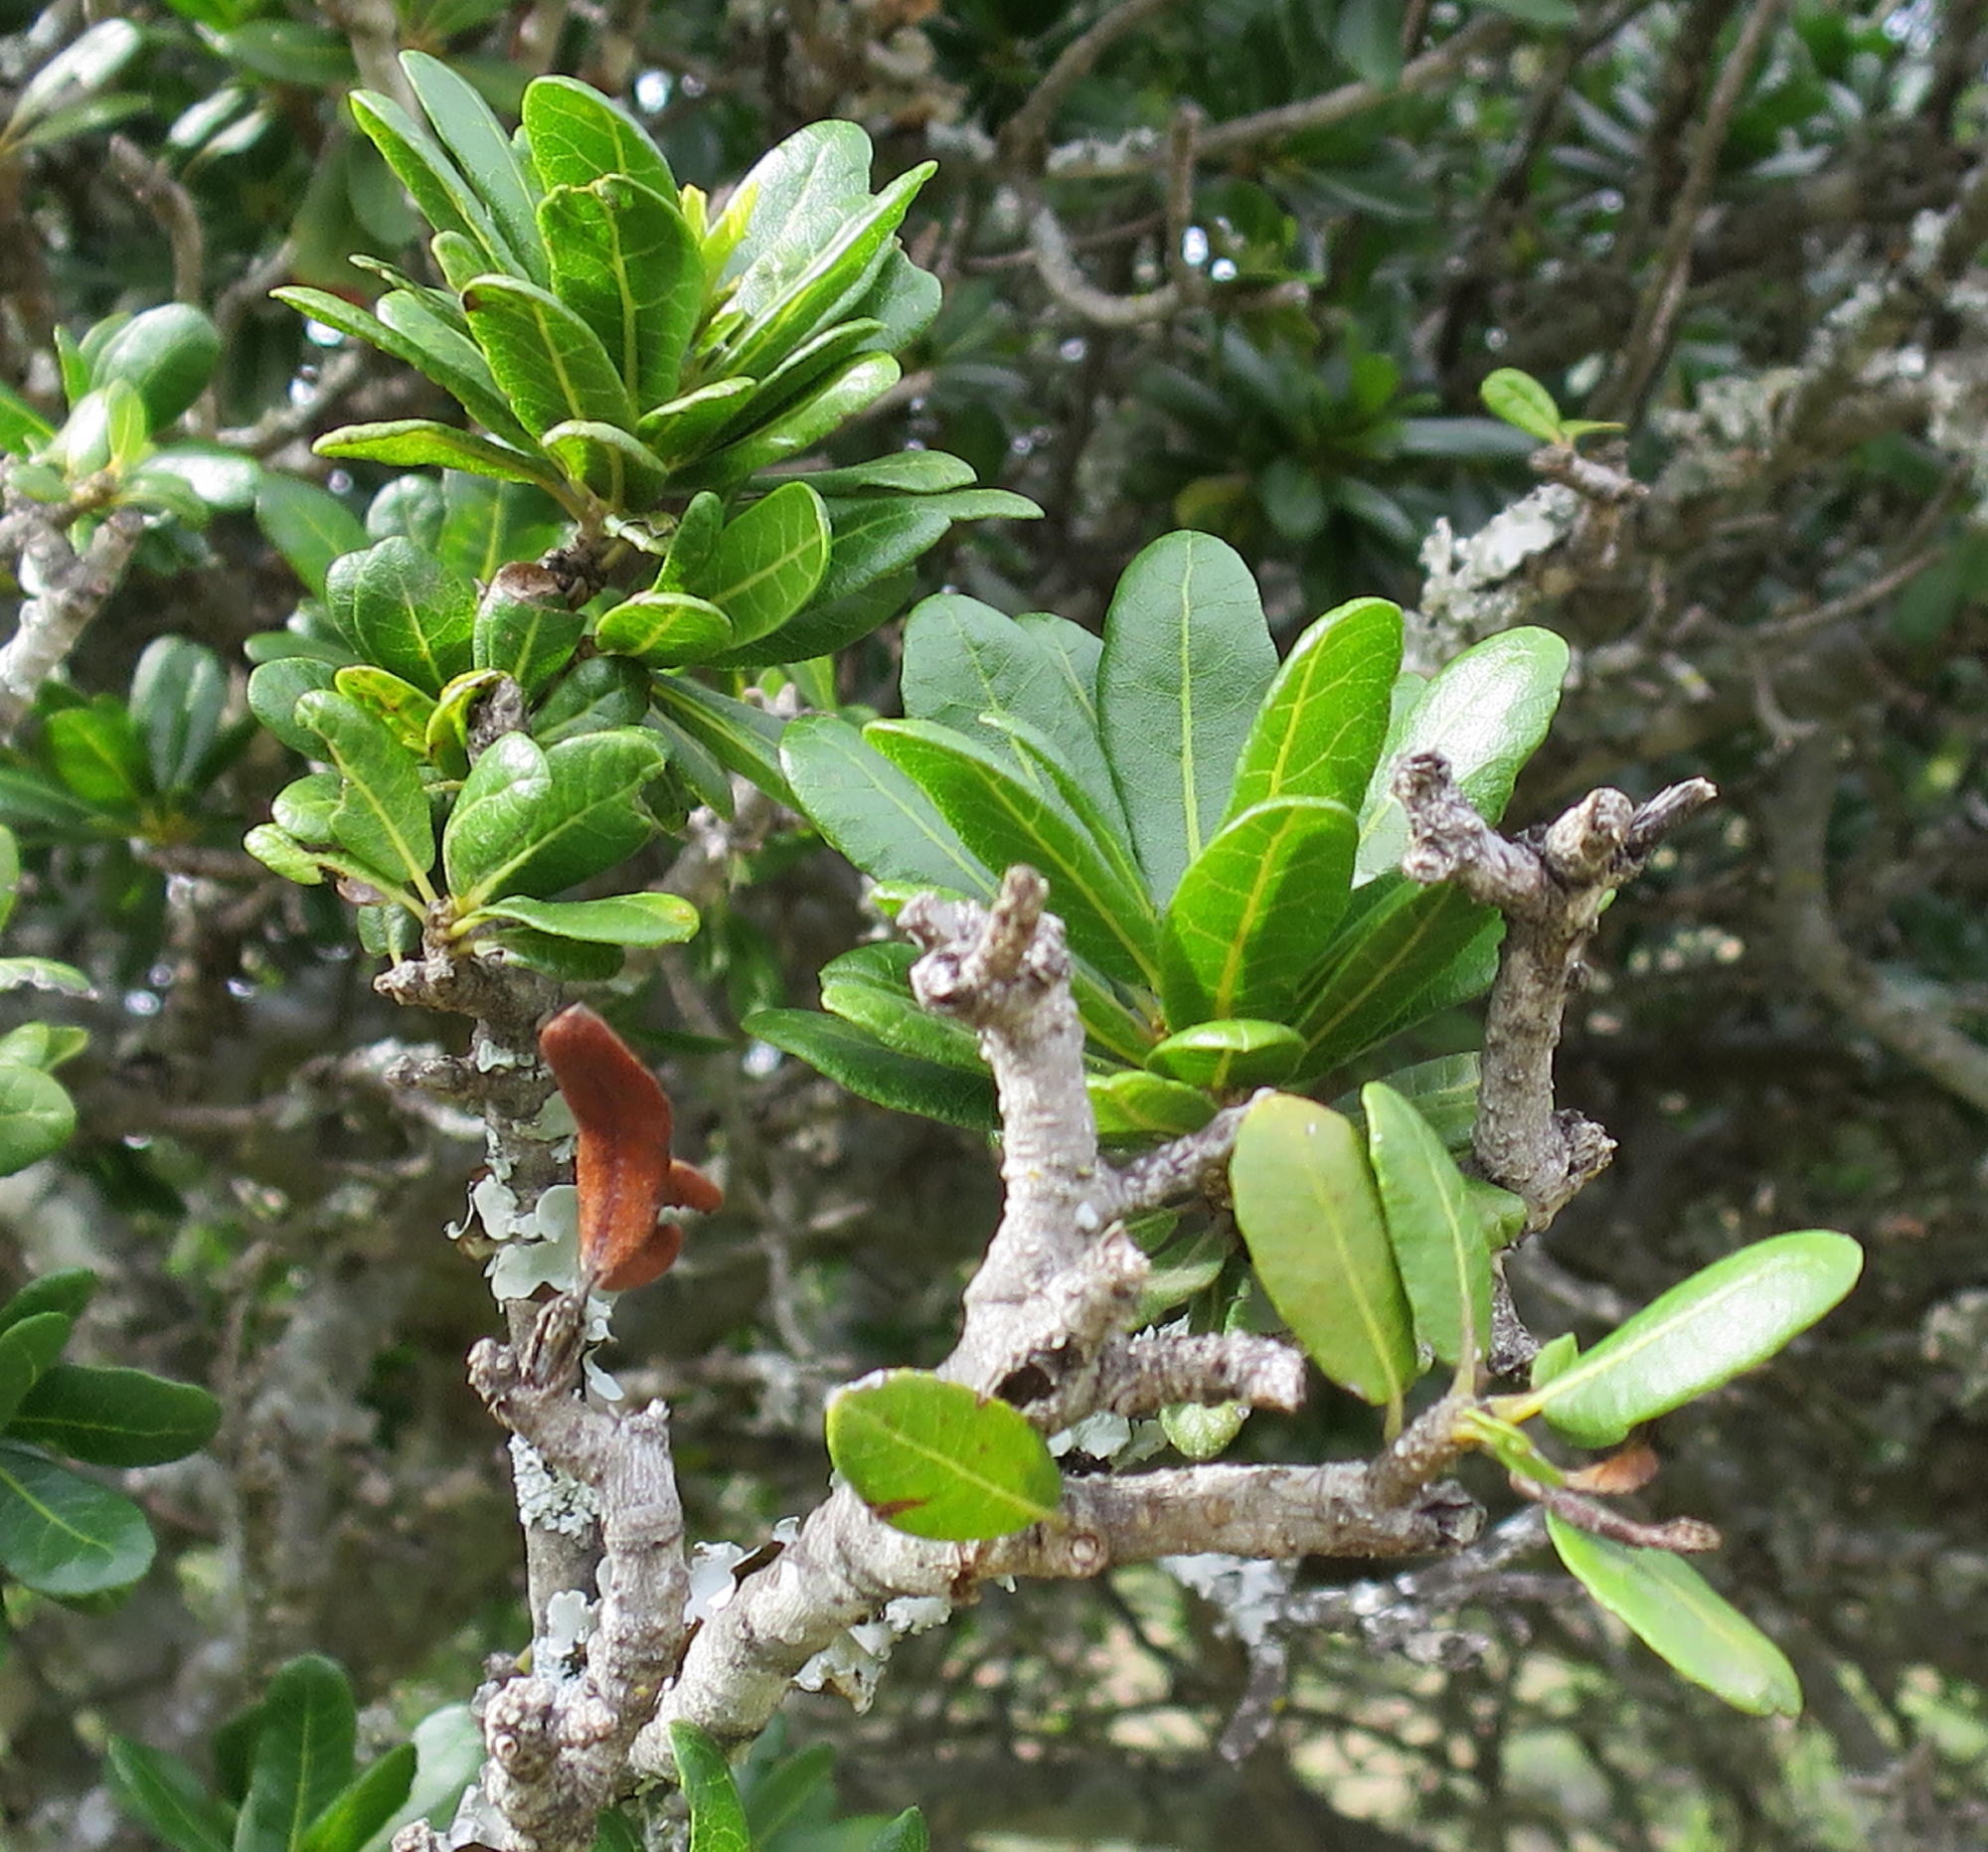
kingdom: Plantae
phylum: Tracheophyta
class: Magnoliopsida
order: Sapindales
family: Sapindaceae
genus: Pappea
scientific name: Pappea capensis
